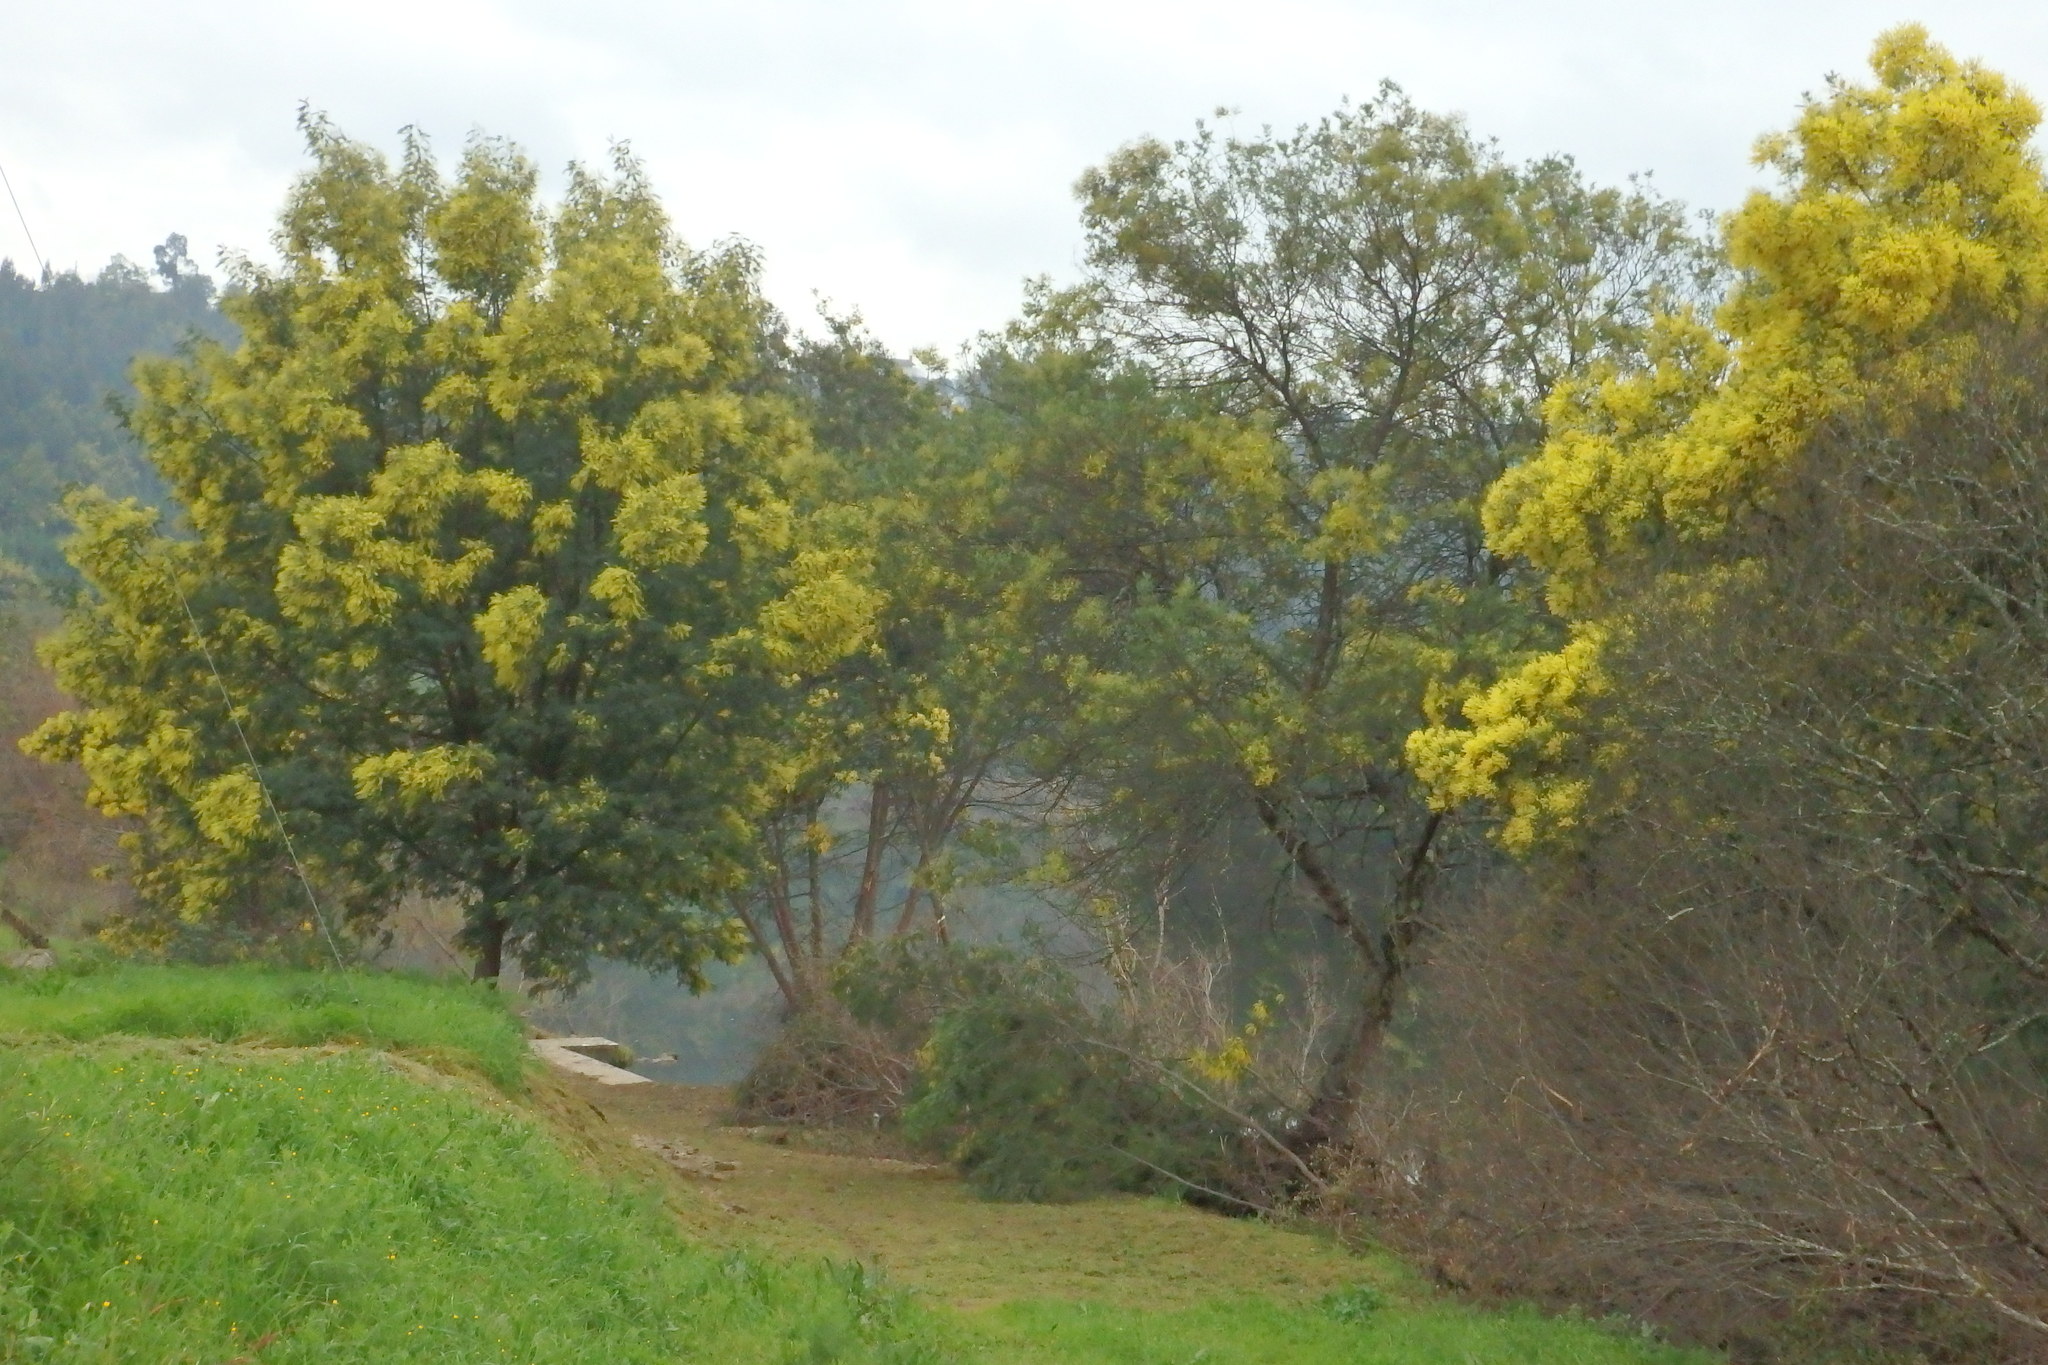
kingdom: Plantae
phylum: Tracheophyta
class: Magnoliopsida
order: Fabales
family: Fabaceae
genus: Acacia
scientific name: Acacia dealbata
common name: Silver wattle
